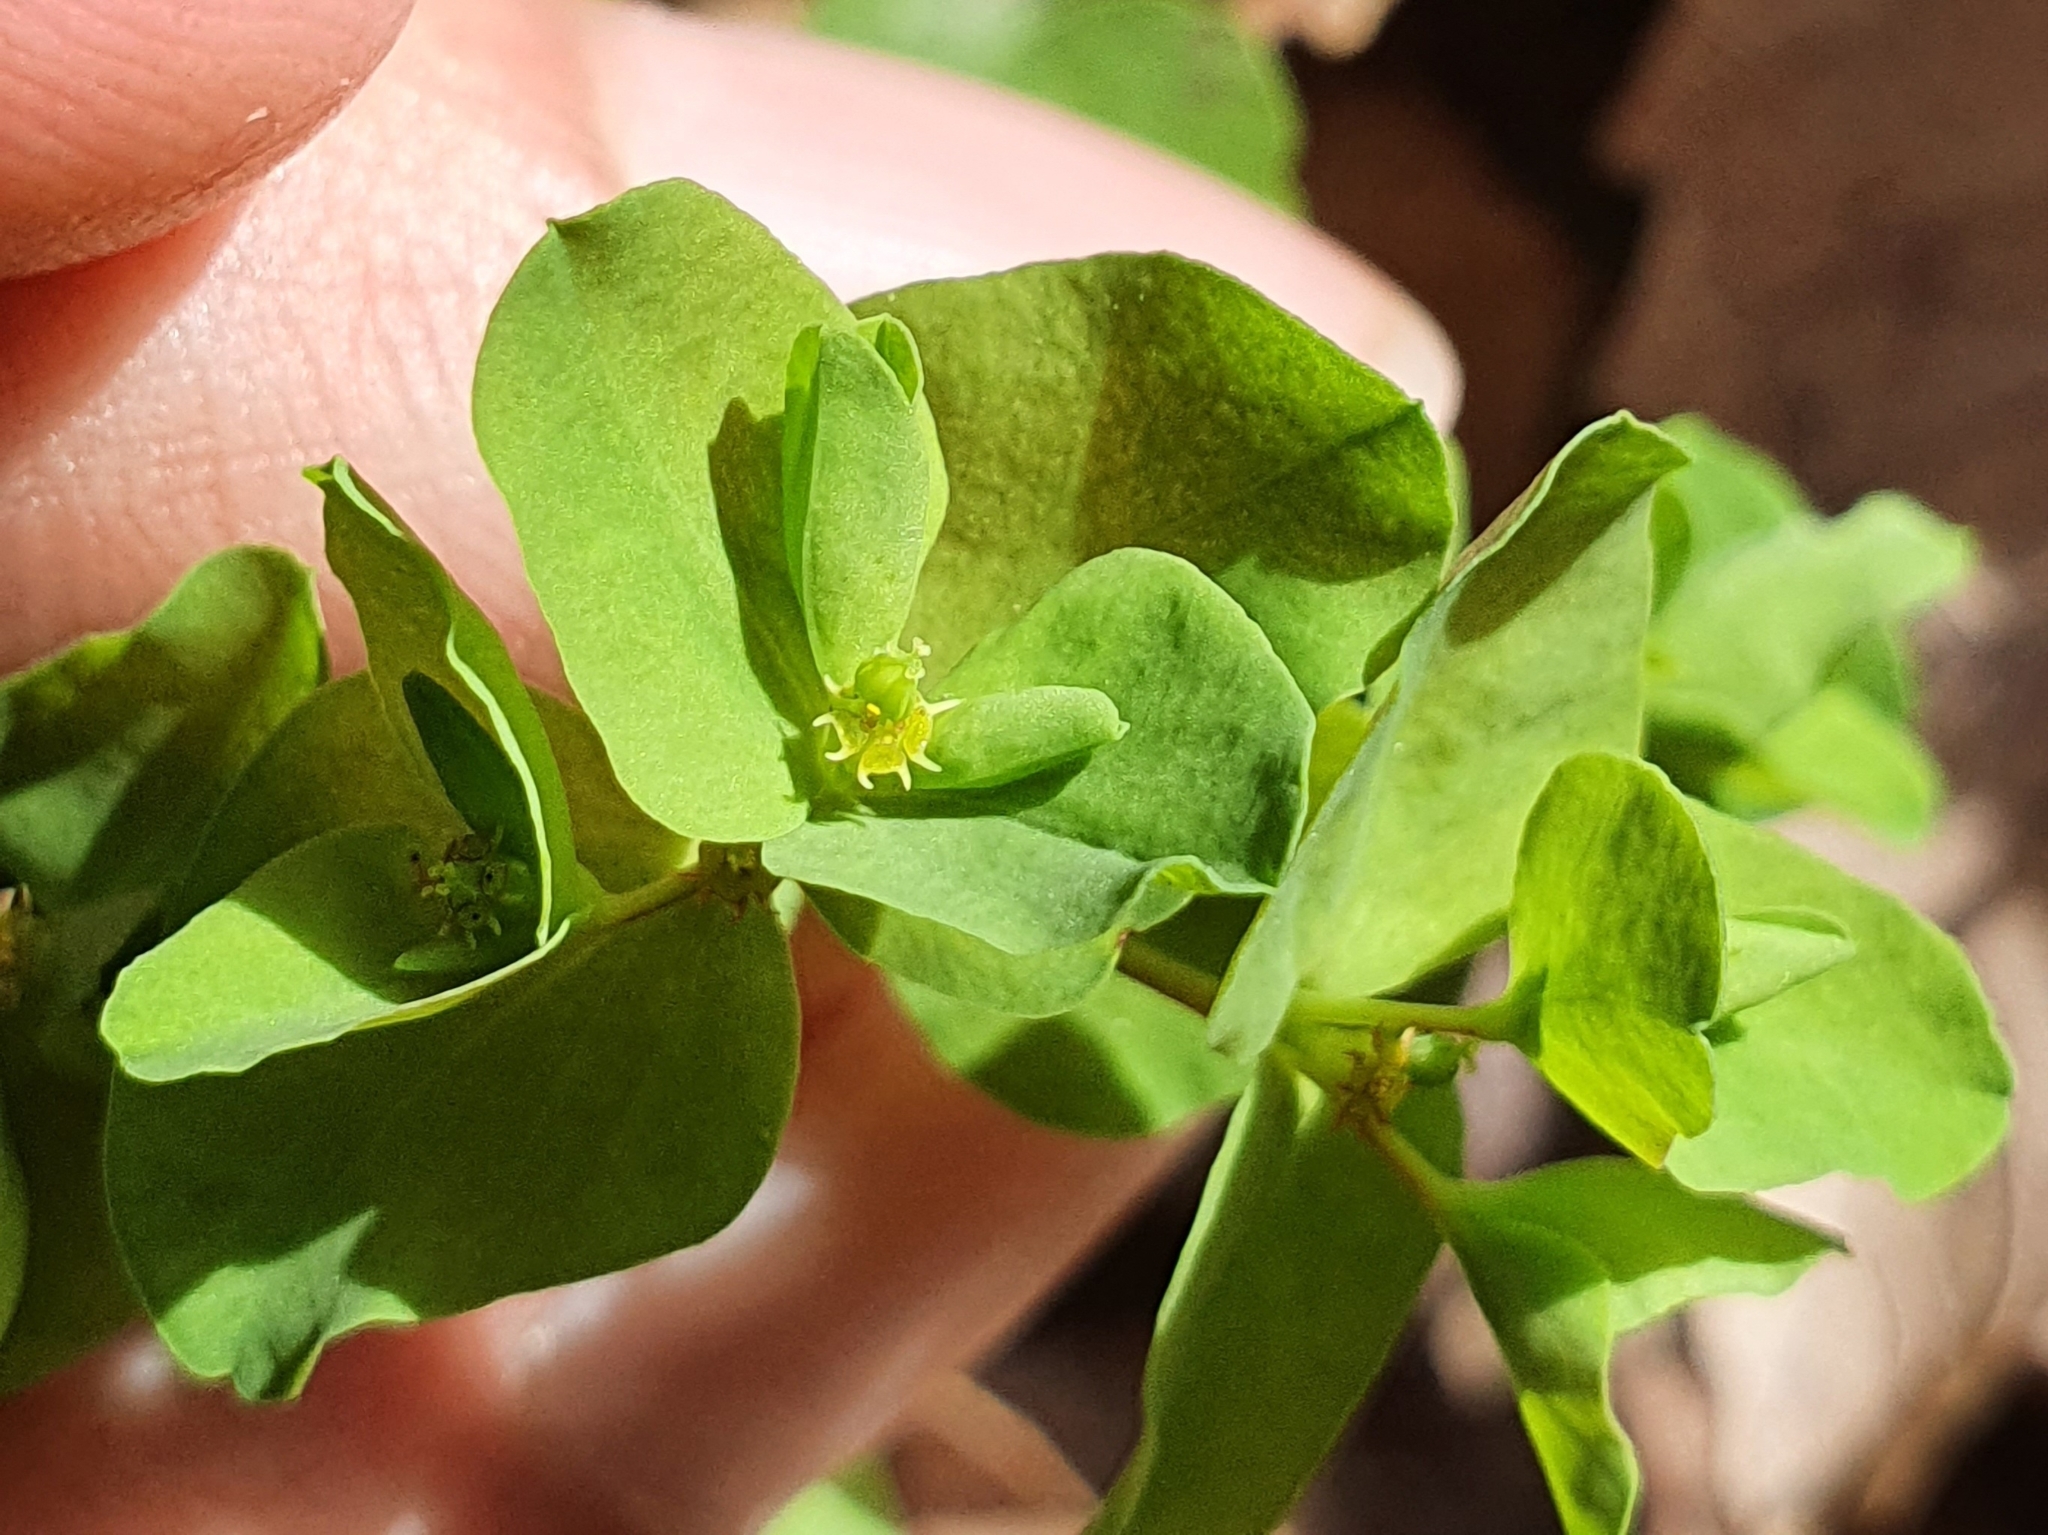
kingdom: Plantae
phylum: Tracheophyta
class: Magnoliopsida
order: Malpighiales
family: Euphorbiaceae
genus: Euphorbia
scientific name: Euphorbia peplus
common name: Petty spurge
